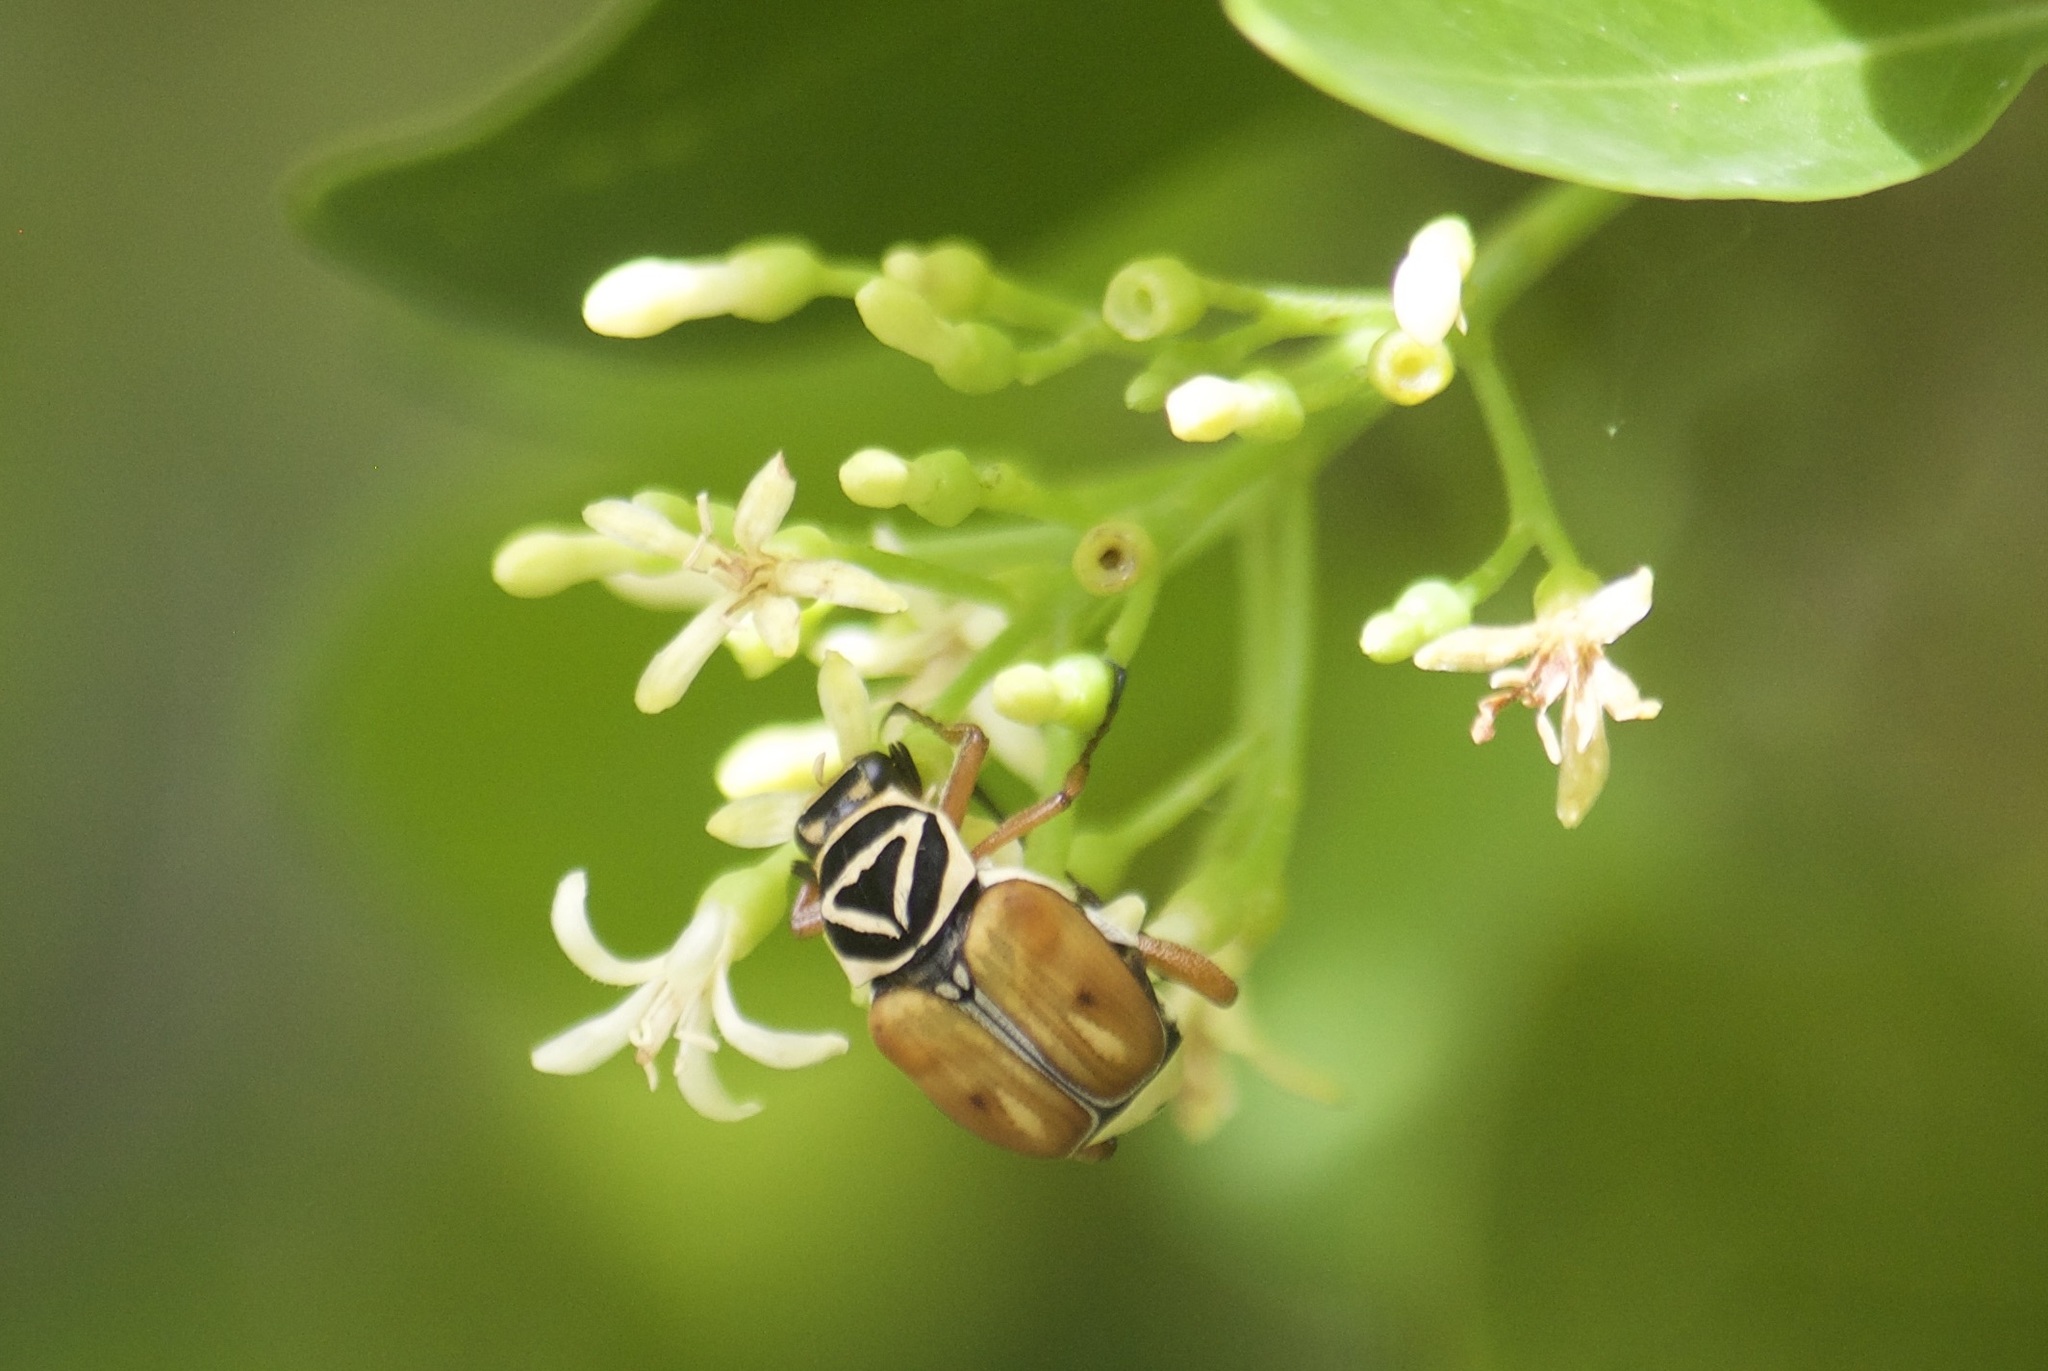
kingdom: Animalia
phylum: Arthropoda
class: Insecta
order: Coleoptera
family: Scarabaeidae
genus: Trigonopeltastes
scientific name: Trigonopeltastes delta
